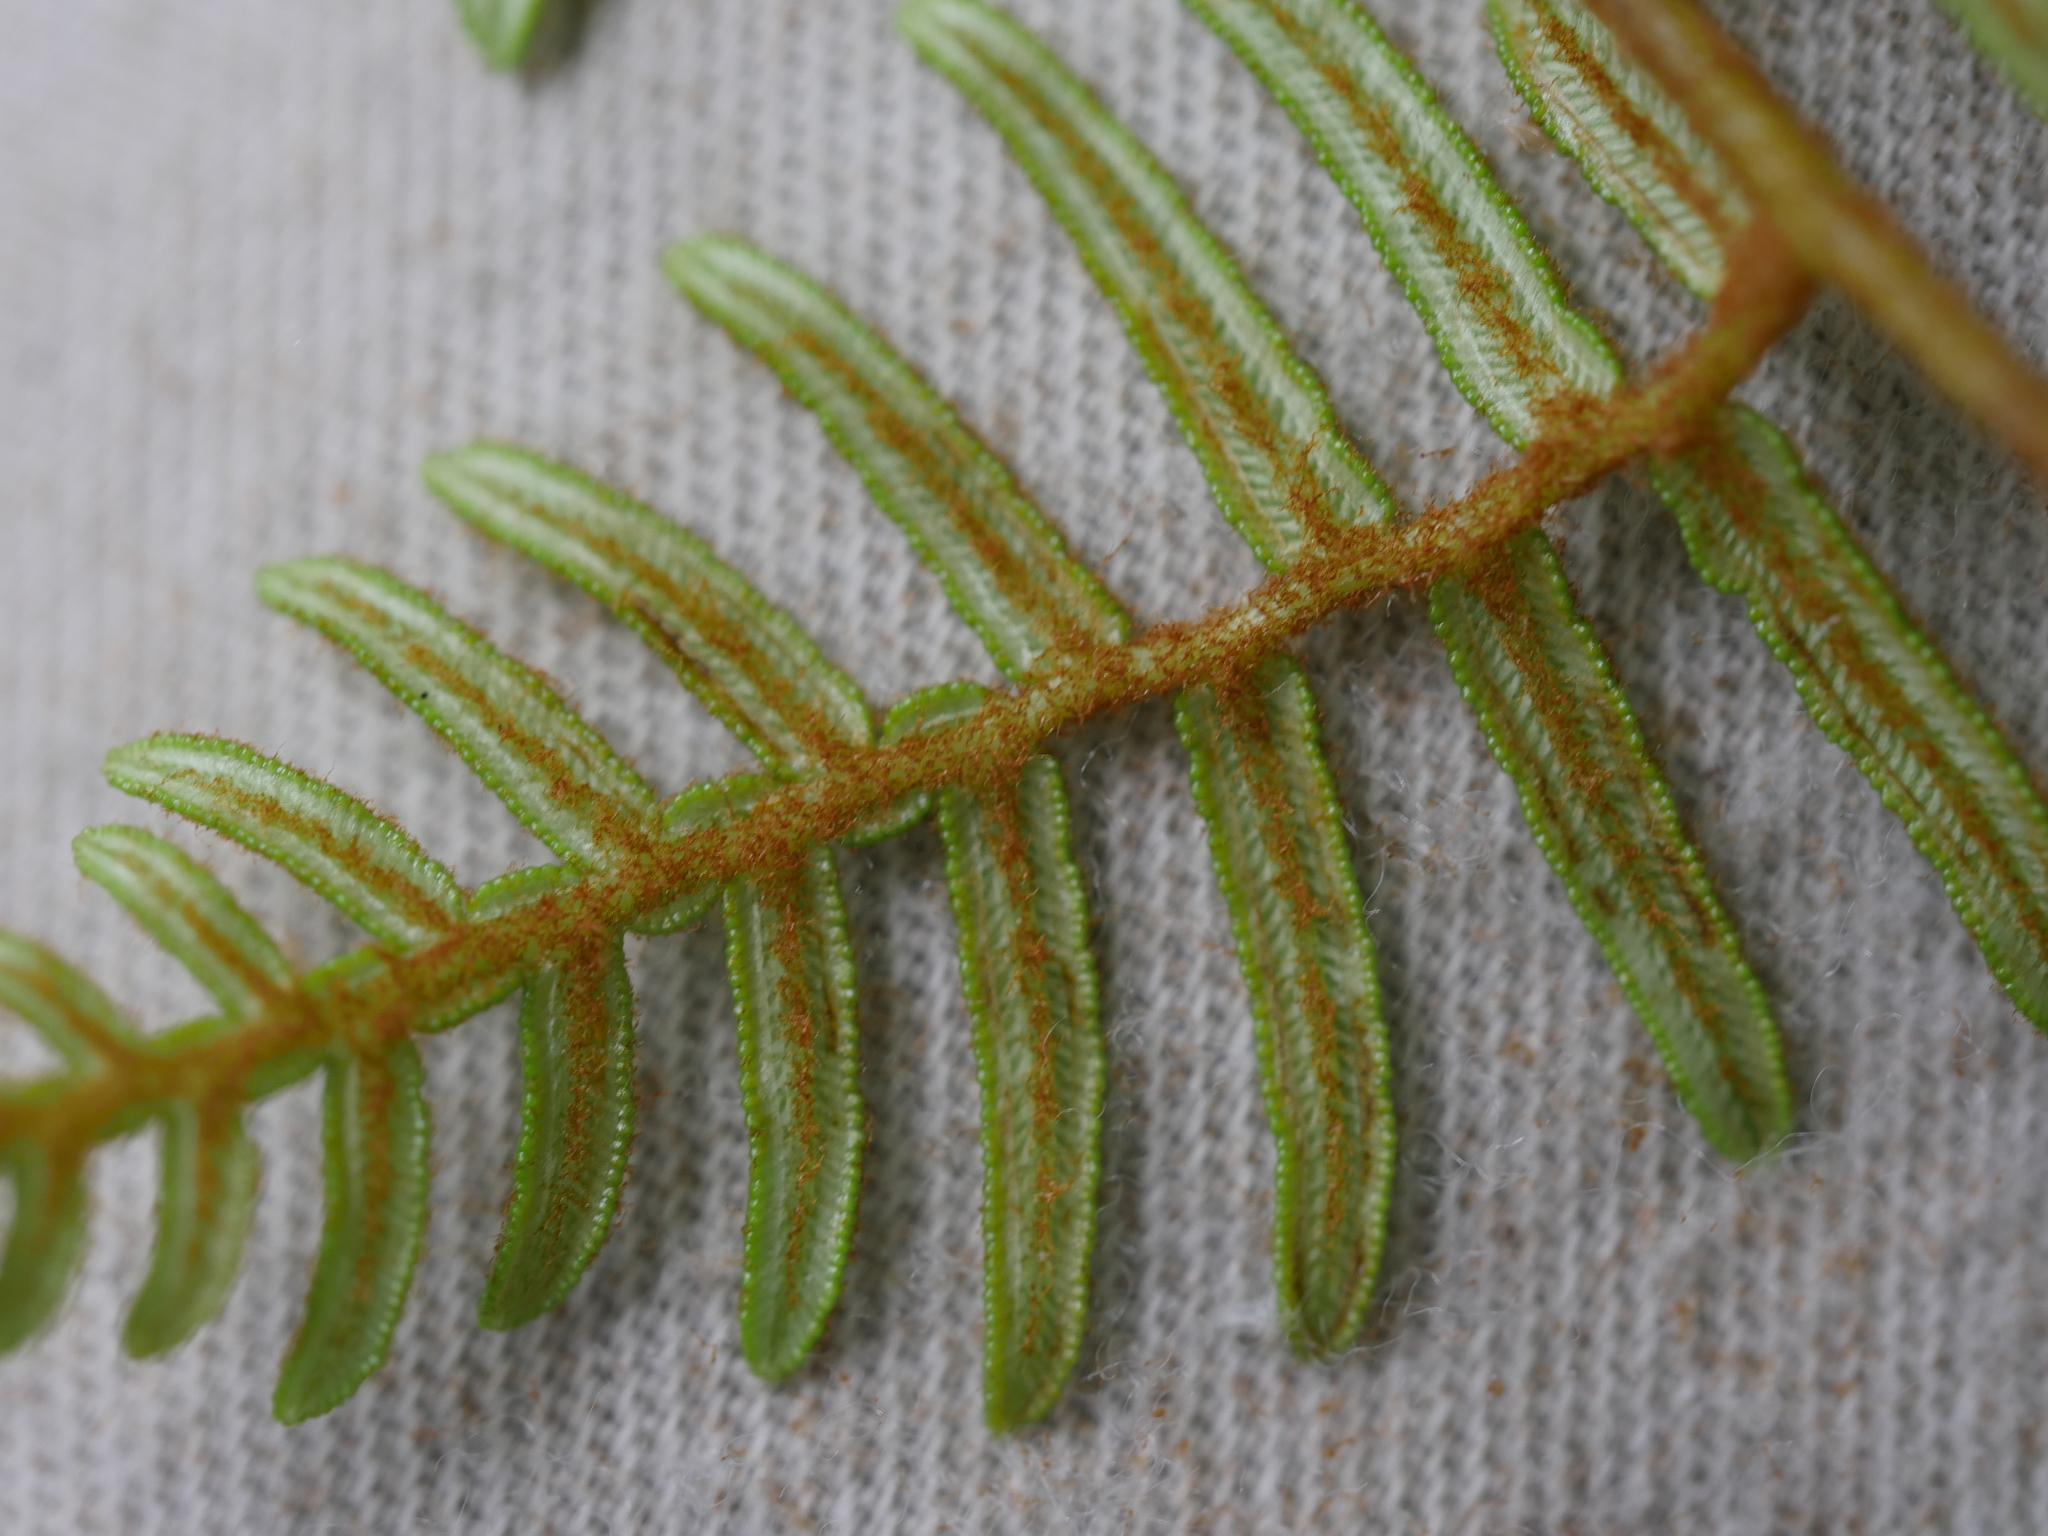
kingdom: Plantae
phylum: Tracheophyta
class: Polypodiopsida
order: Polypodiales
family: Dennstaedtiaceae
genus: Pteridium
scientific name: Pteridium esculentum
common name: Bracken fern
